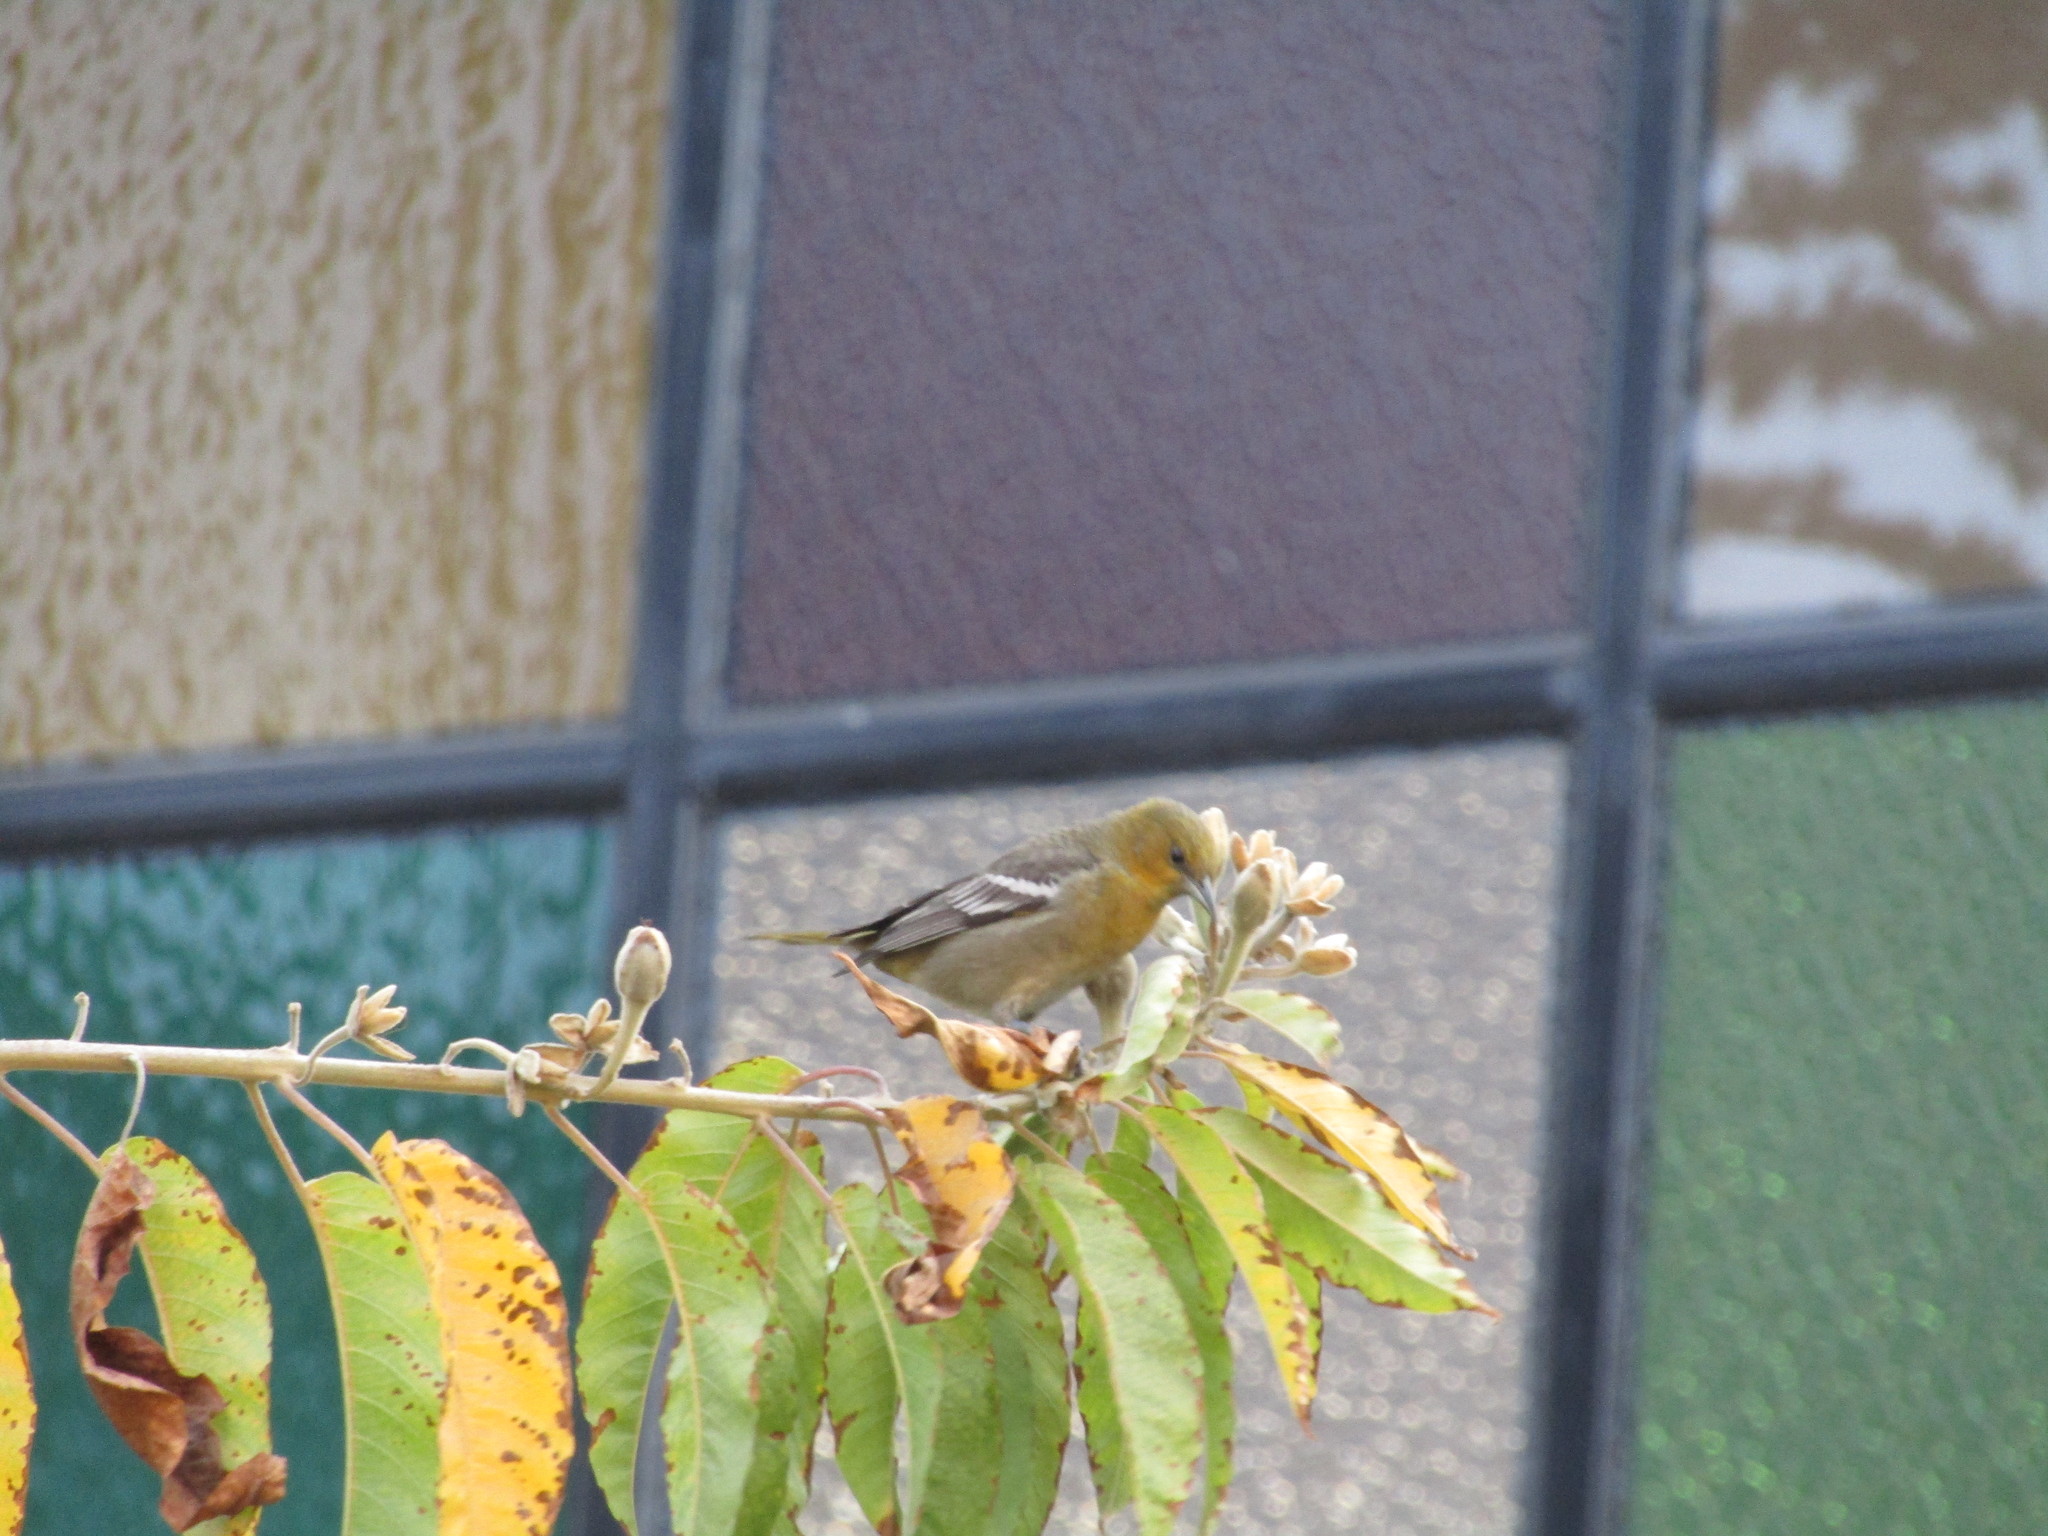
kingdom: Animalia
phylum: Chordata
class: Aves
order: Passeriformes
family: Icteridae
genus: Icterus
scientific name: Icterus bullockii
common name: Bullock's oriole
